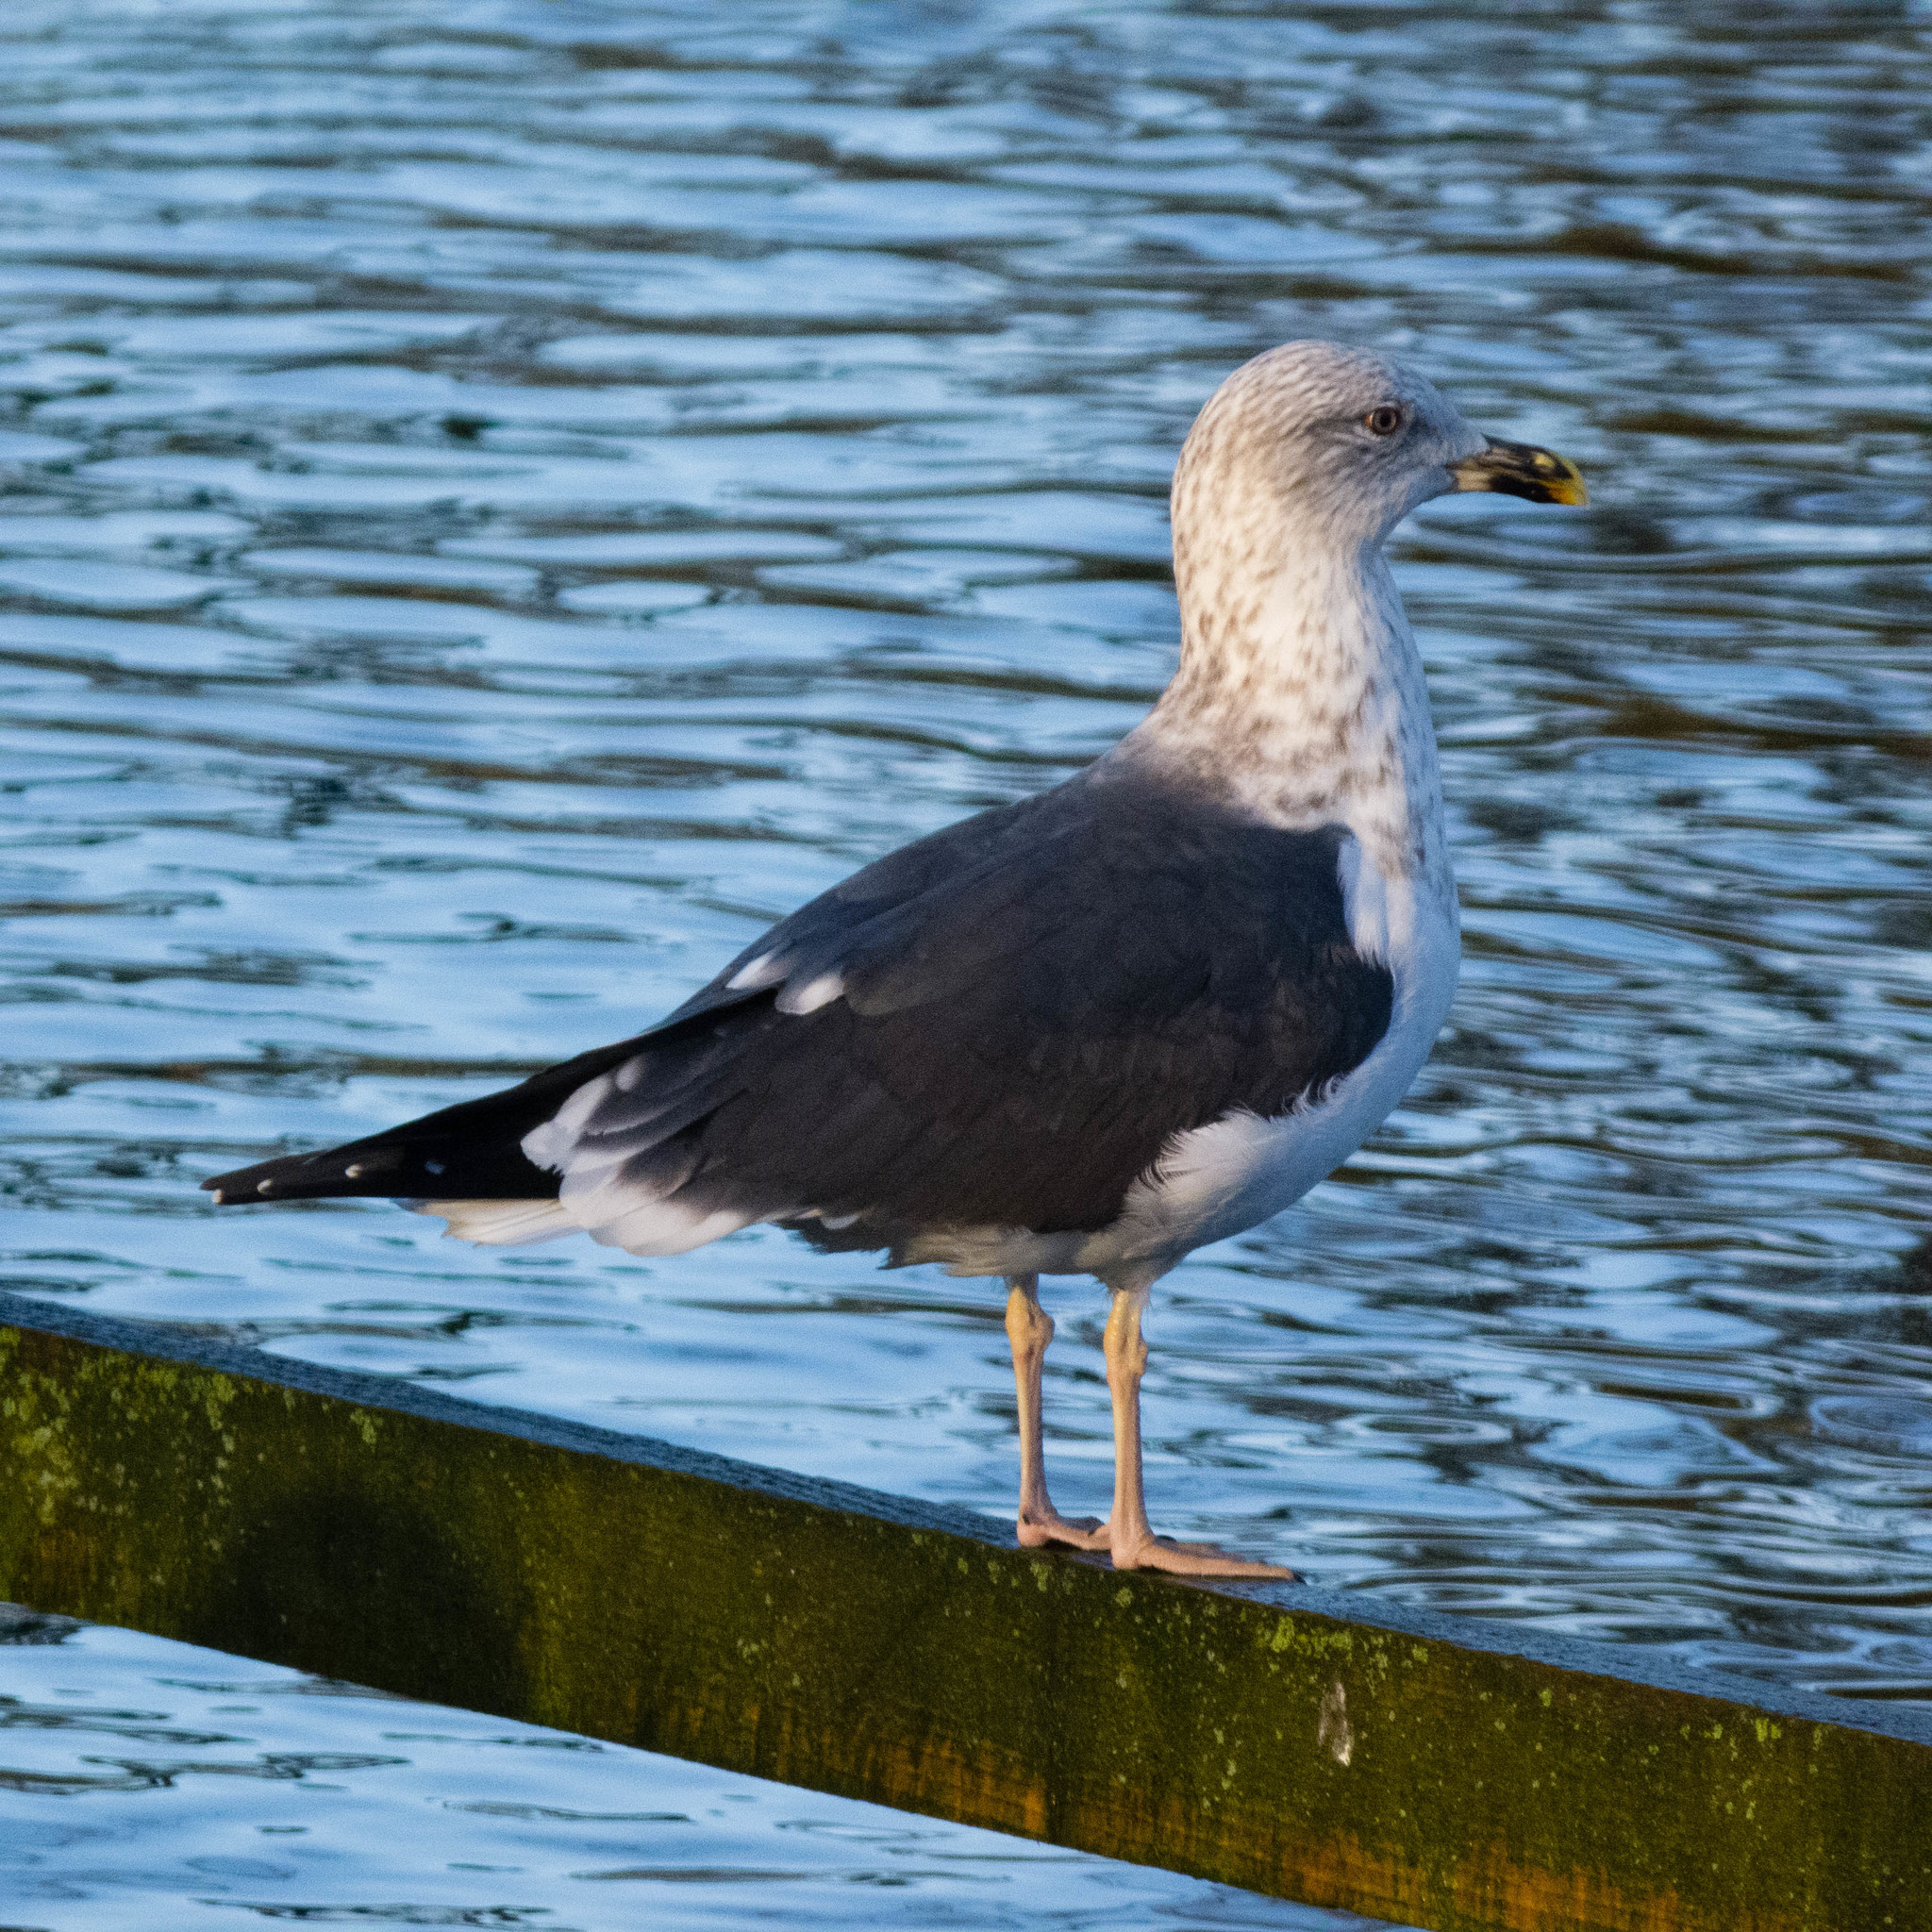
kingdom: Animalia
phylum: Chordata
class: Aves
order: Charadriiformes
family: Laridae
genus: Larus
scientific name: Larus fuscus
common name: Lesser black-backed gull
